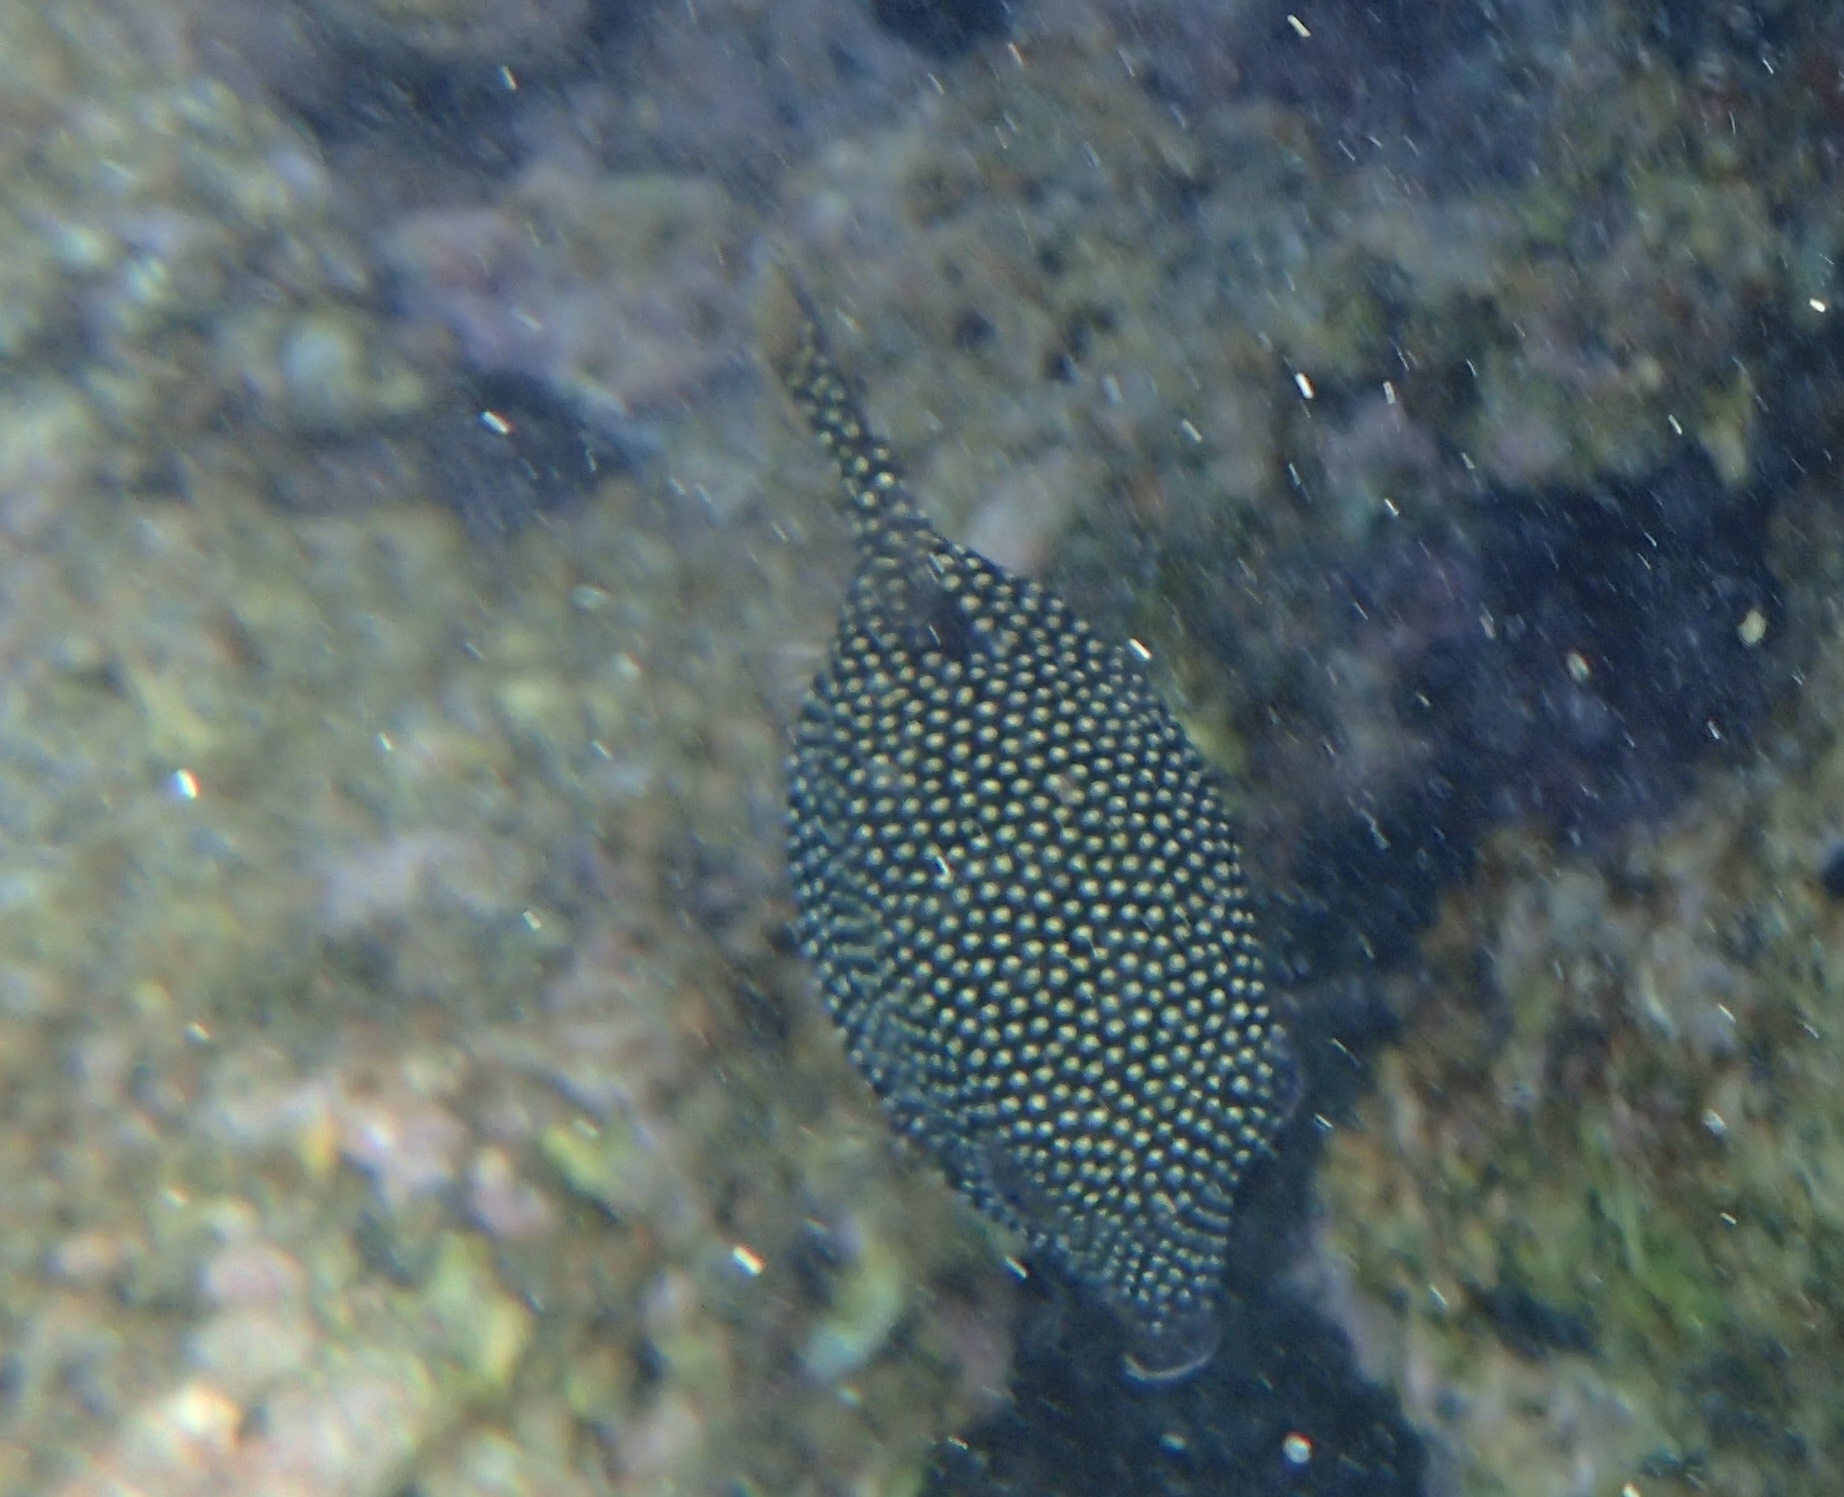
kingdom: Animalia
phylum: Chordata
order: Tetraodontiformes
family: Ostraciidae
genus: Ostracion
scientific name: Ostracion meleagris
